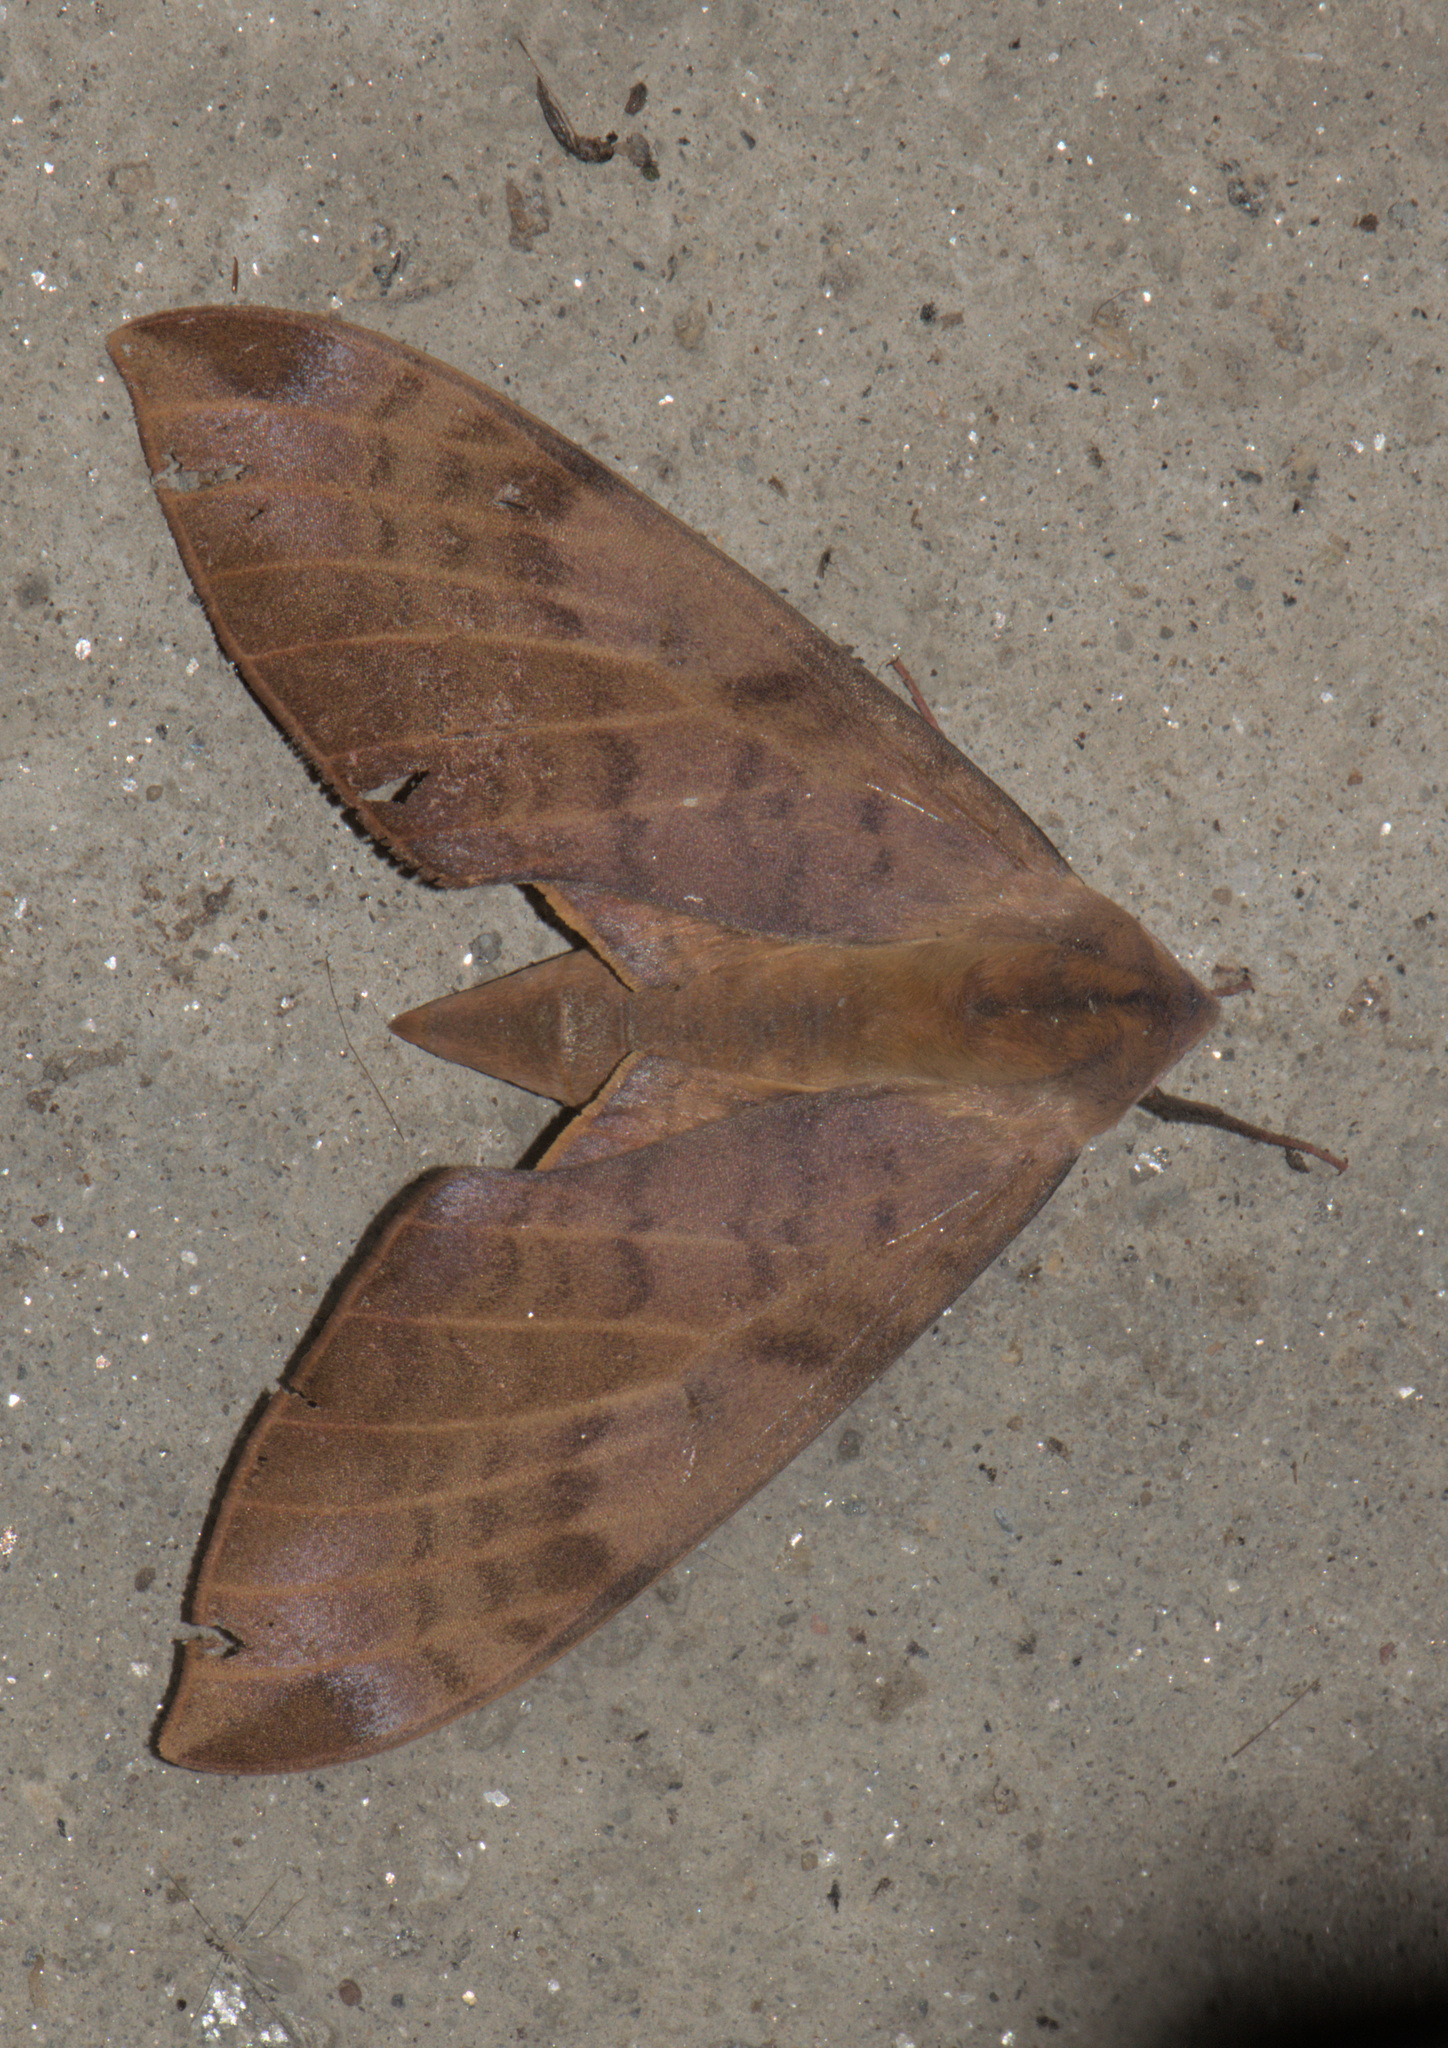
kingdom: Animalia
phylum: Arthropoda
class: Insecta
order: Lepidoptera
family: Sphingidae
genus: Clanidopsis
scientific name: Clanidopsis exusta
